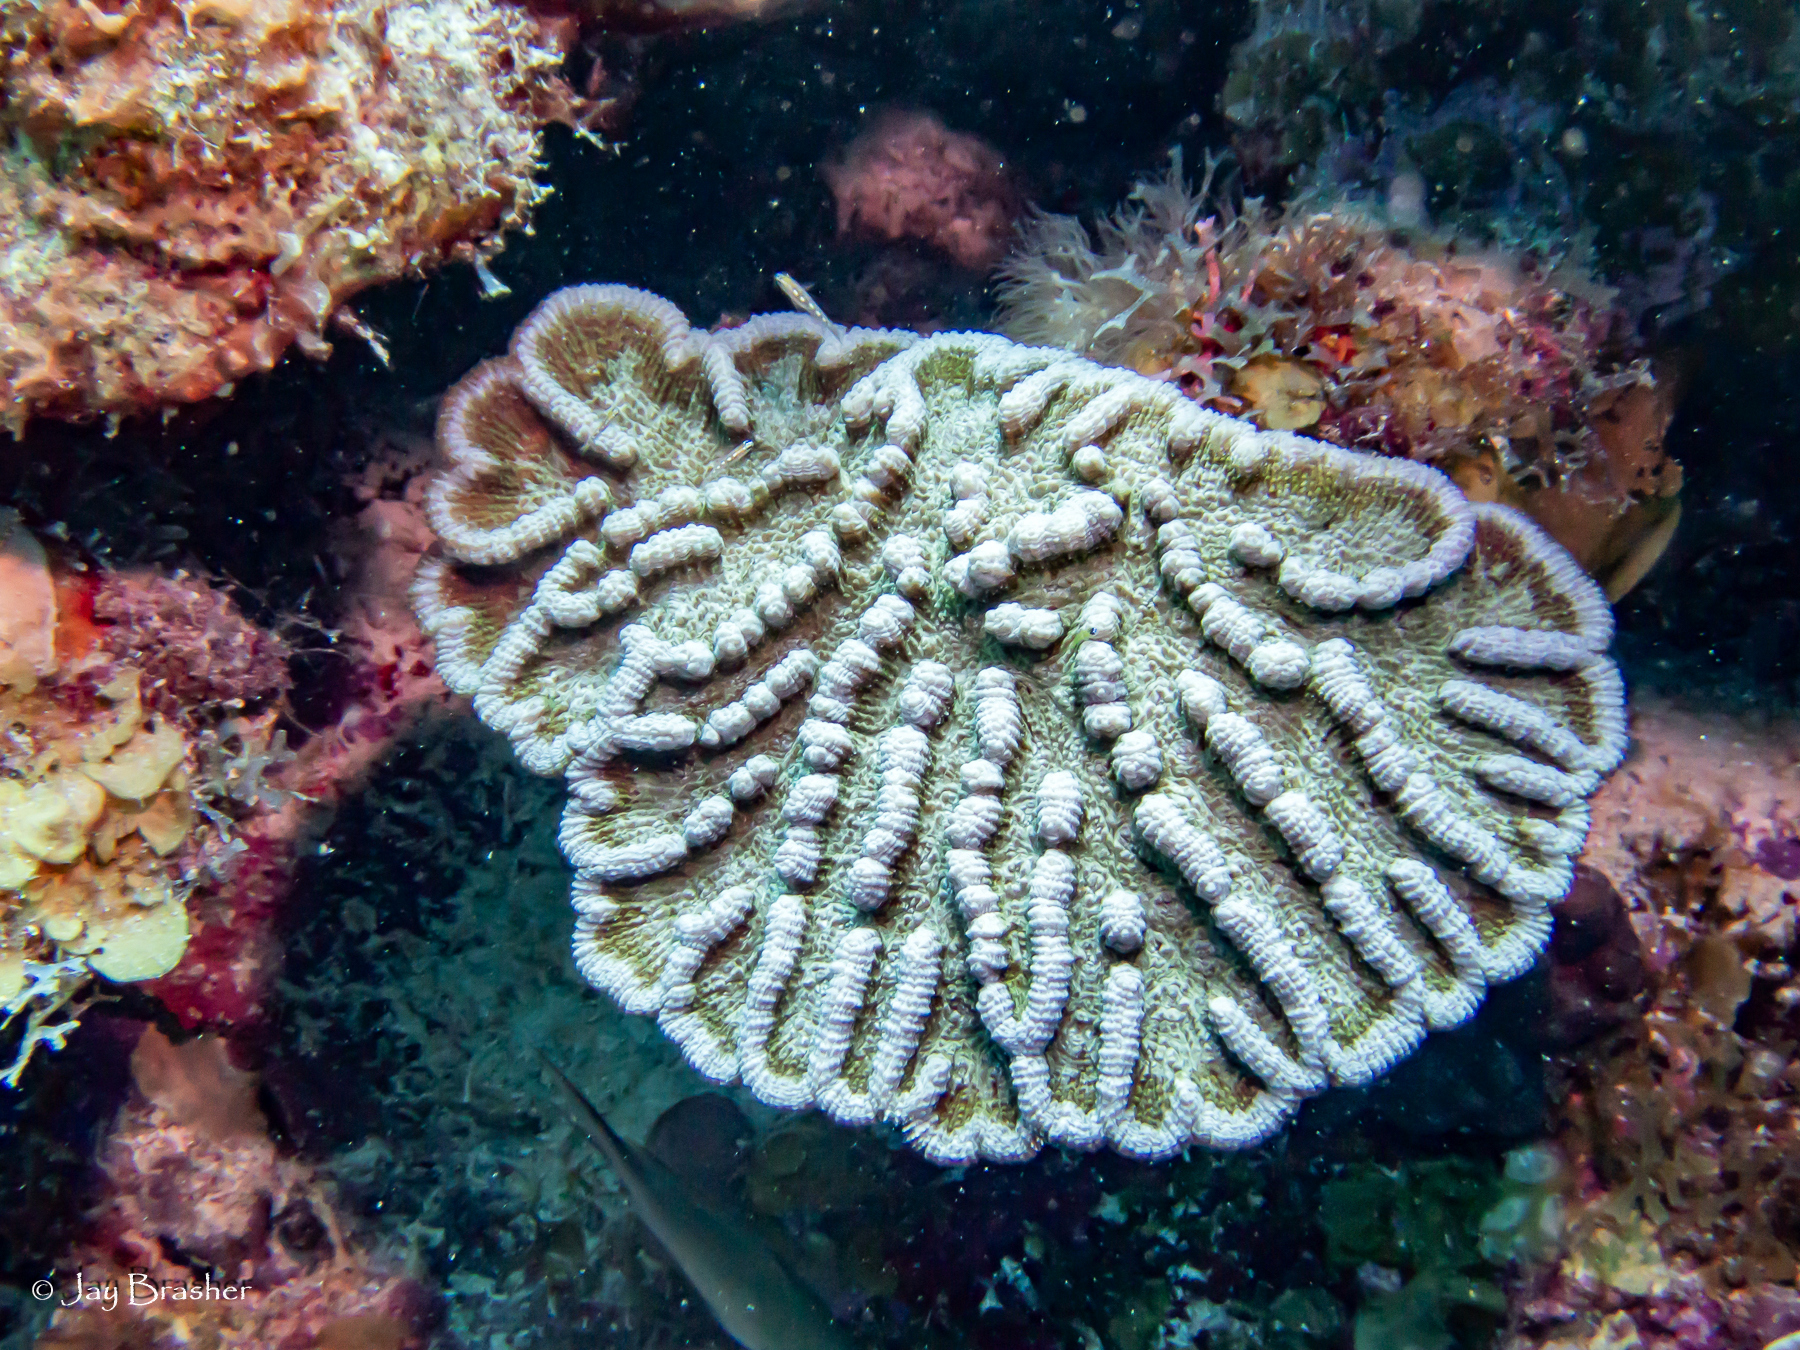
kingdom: Animalia
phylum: Cnidaria
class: Anthozoa
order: Scleractinia
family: Faviidae
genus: Mycetophyllia
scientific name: Mycetophyllia lamarckiana
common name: Ridged cactus coral
